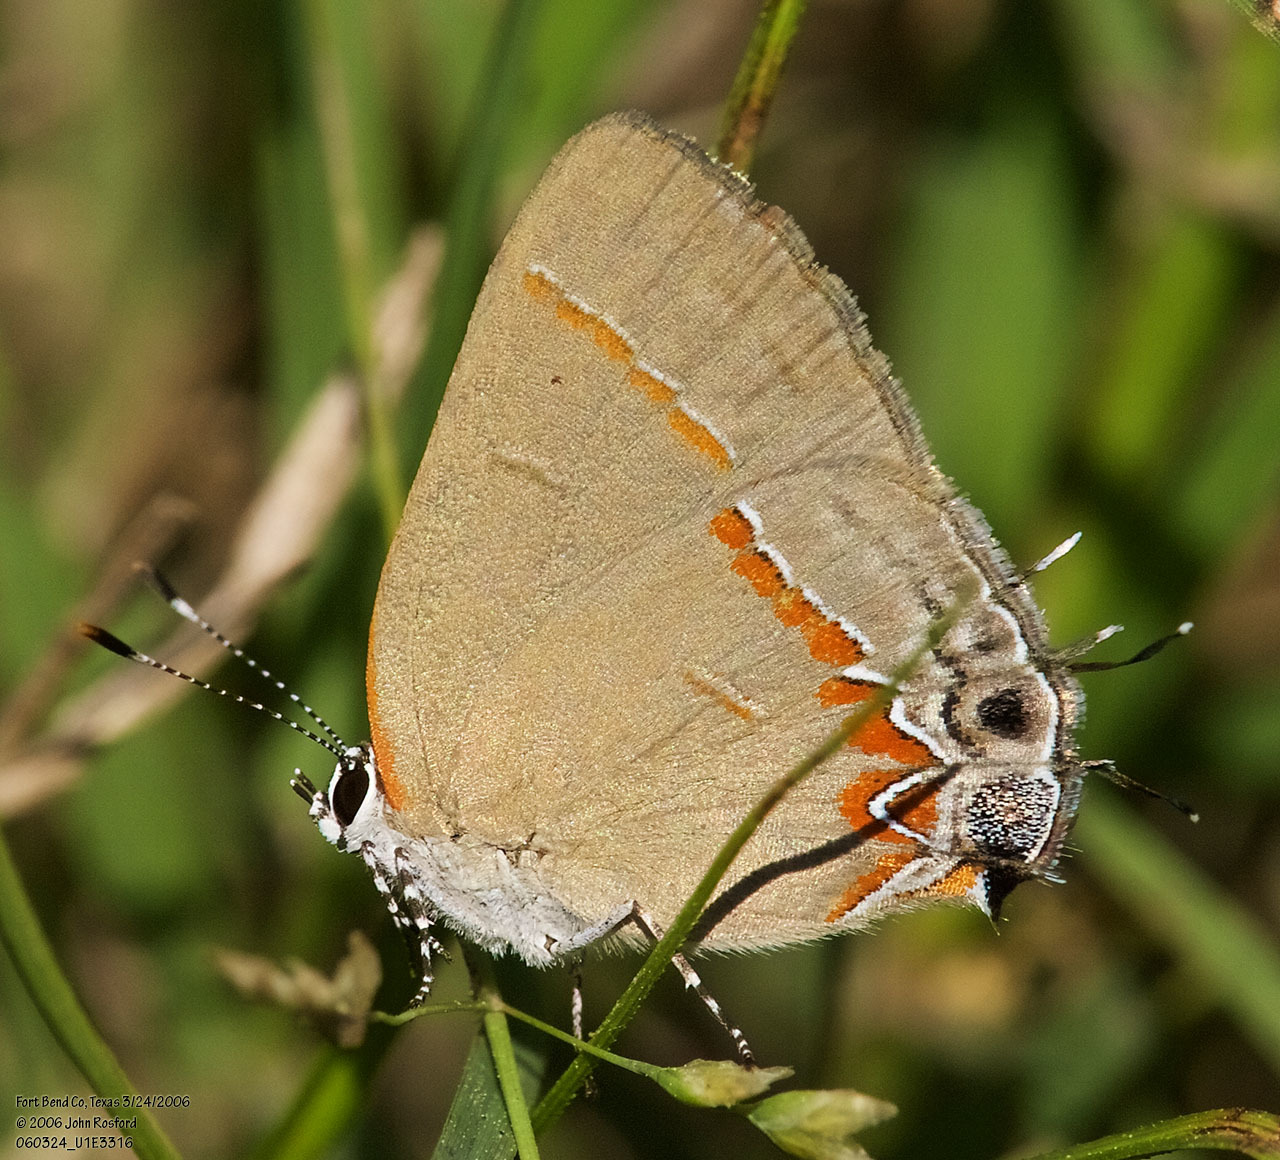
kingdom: Animalia
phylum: Arthropoda
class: Insecta
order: Lepidoptera
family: Lycaenidae
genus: Calycopis
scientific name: Calycopis cecrops
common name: Red-banded hairstreak
